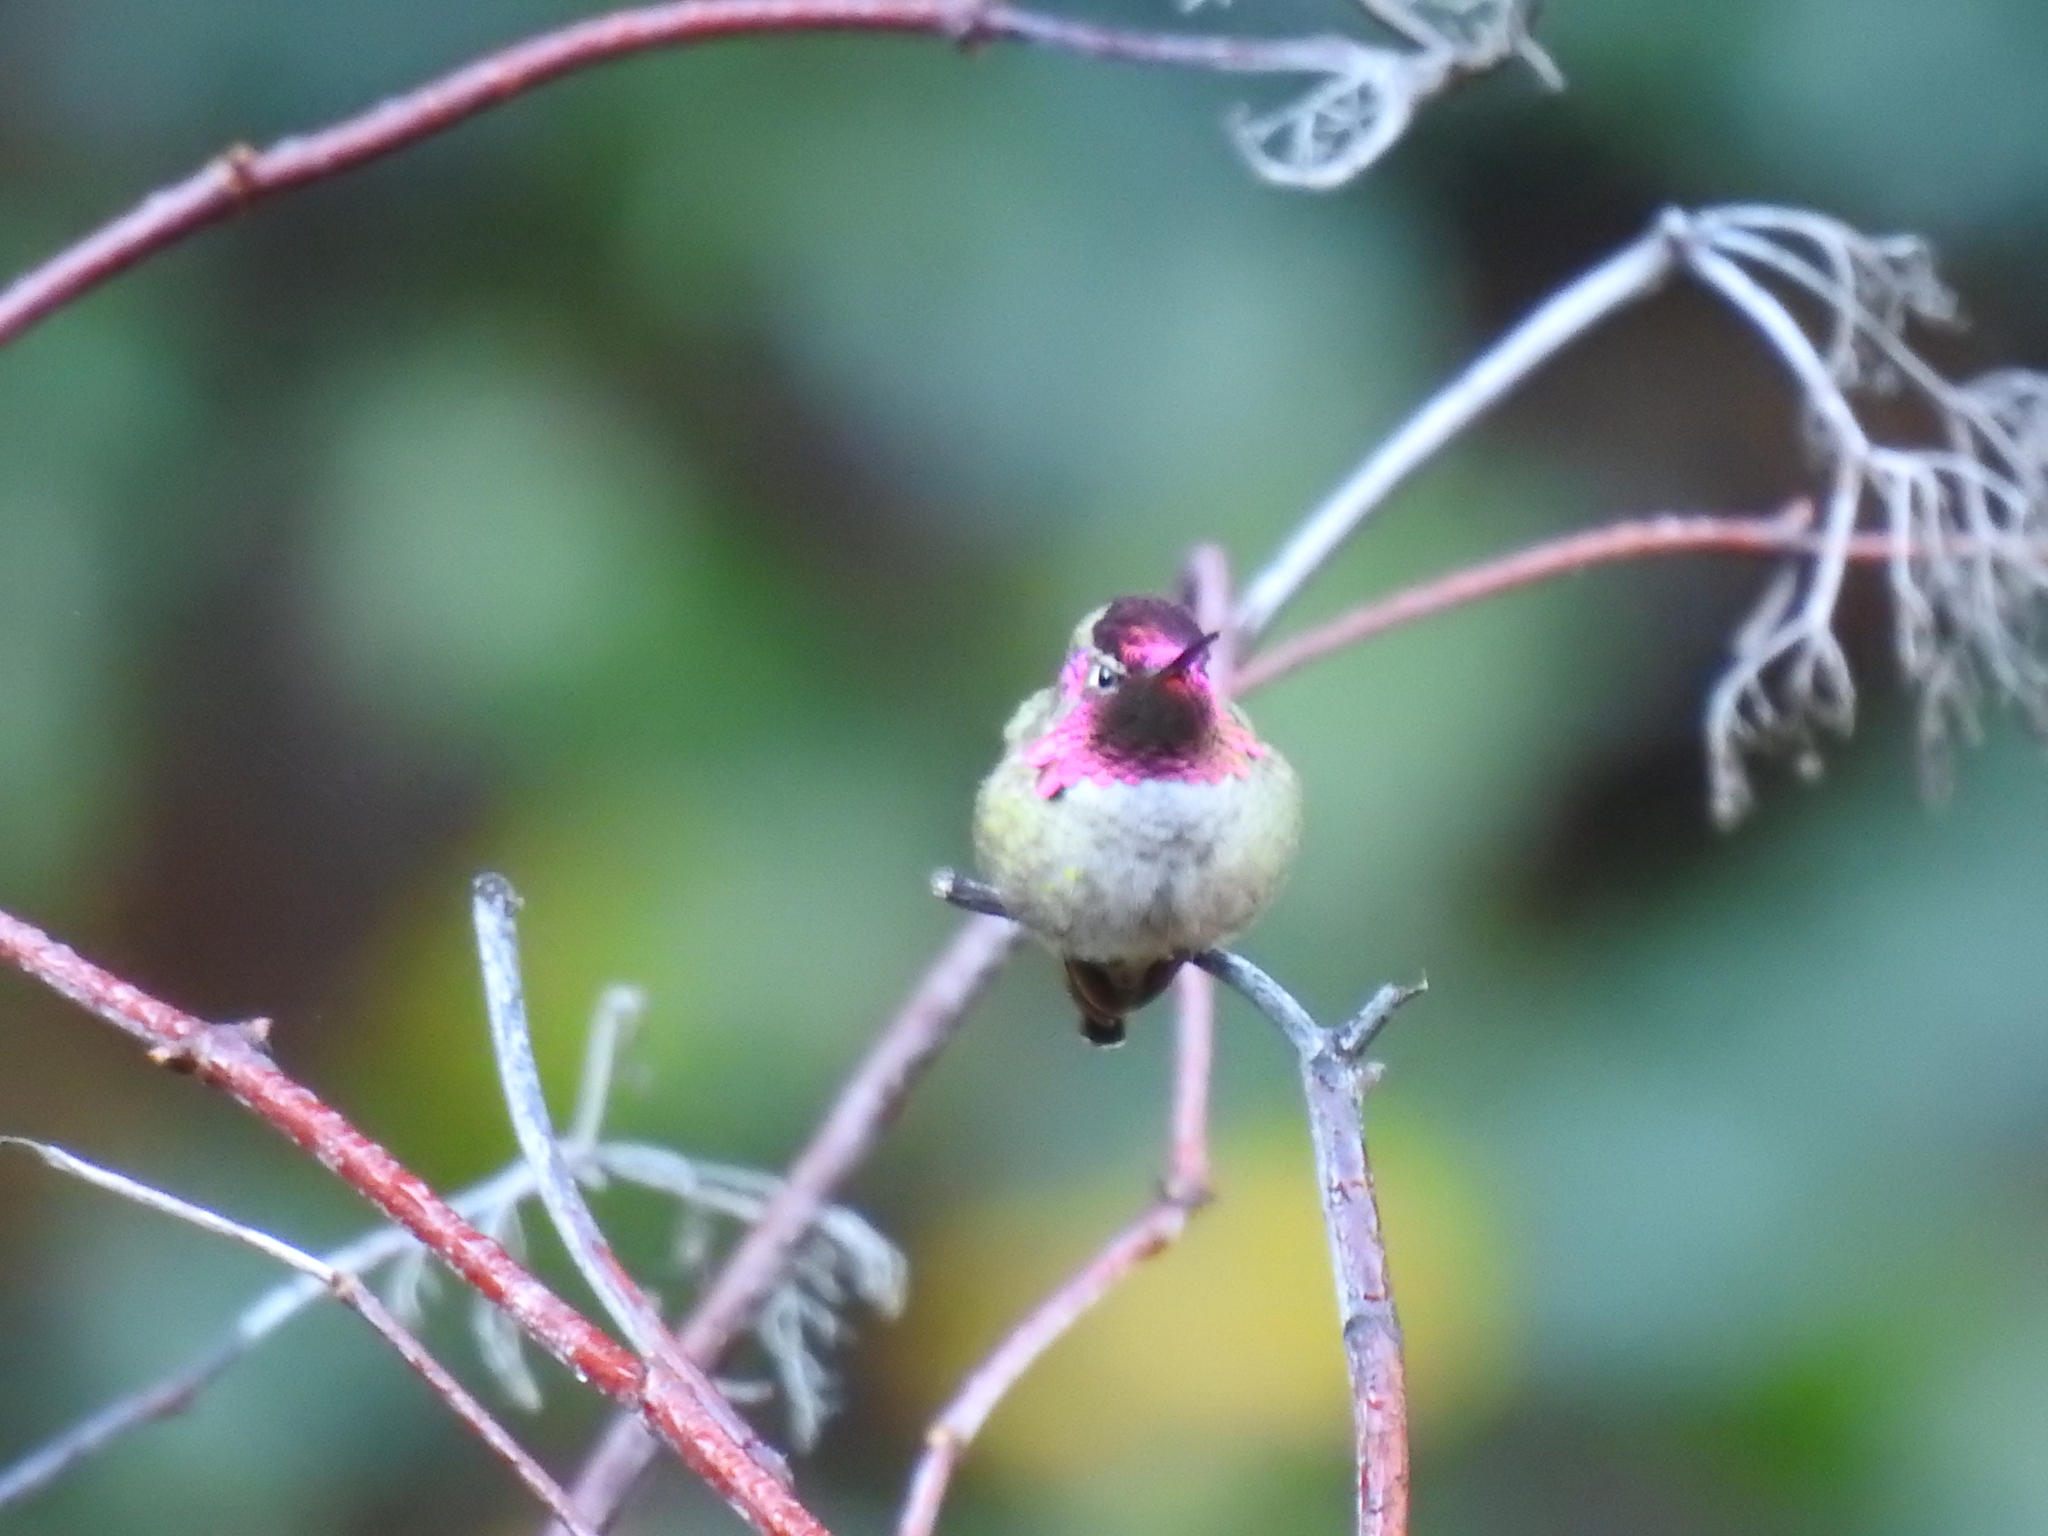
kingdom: Animalia
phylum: Chordata
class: Aves
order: Apodiformes
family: Trochilidae
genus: Calypte
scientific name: Calypte anna
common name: Anna's hummingbird
